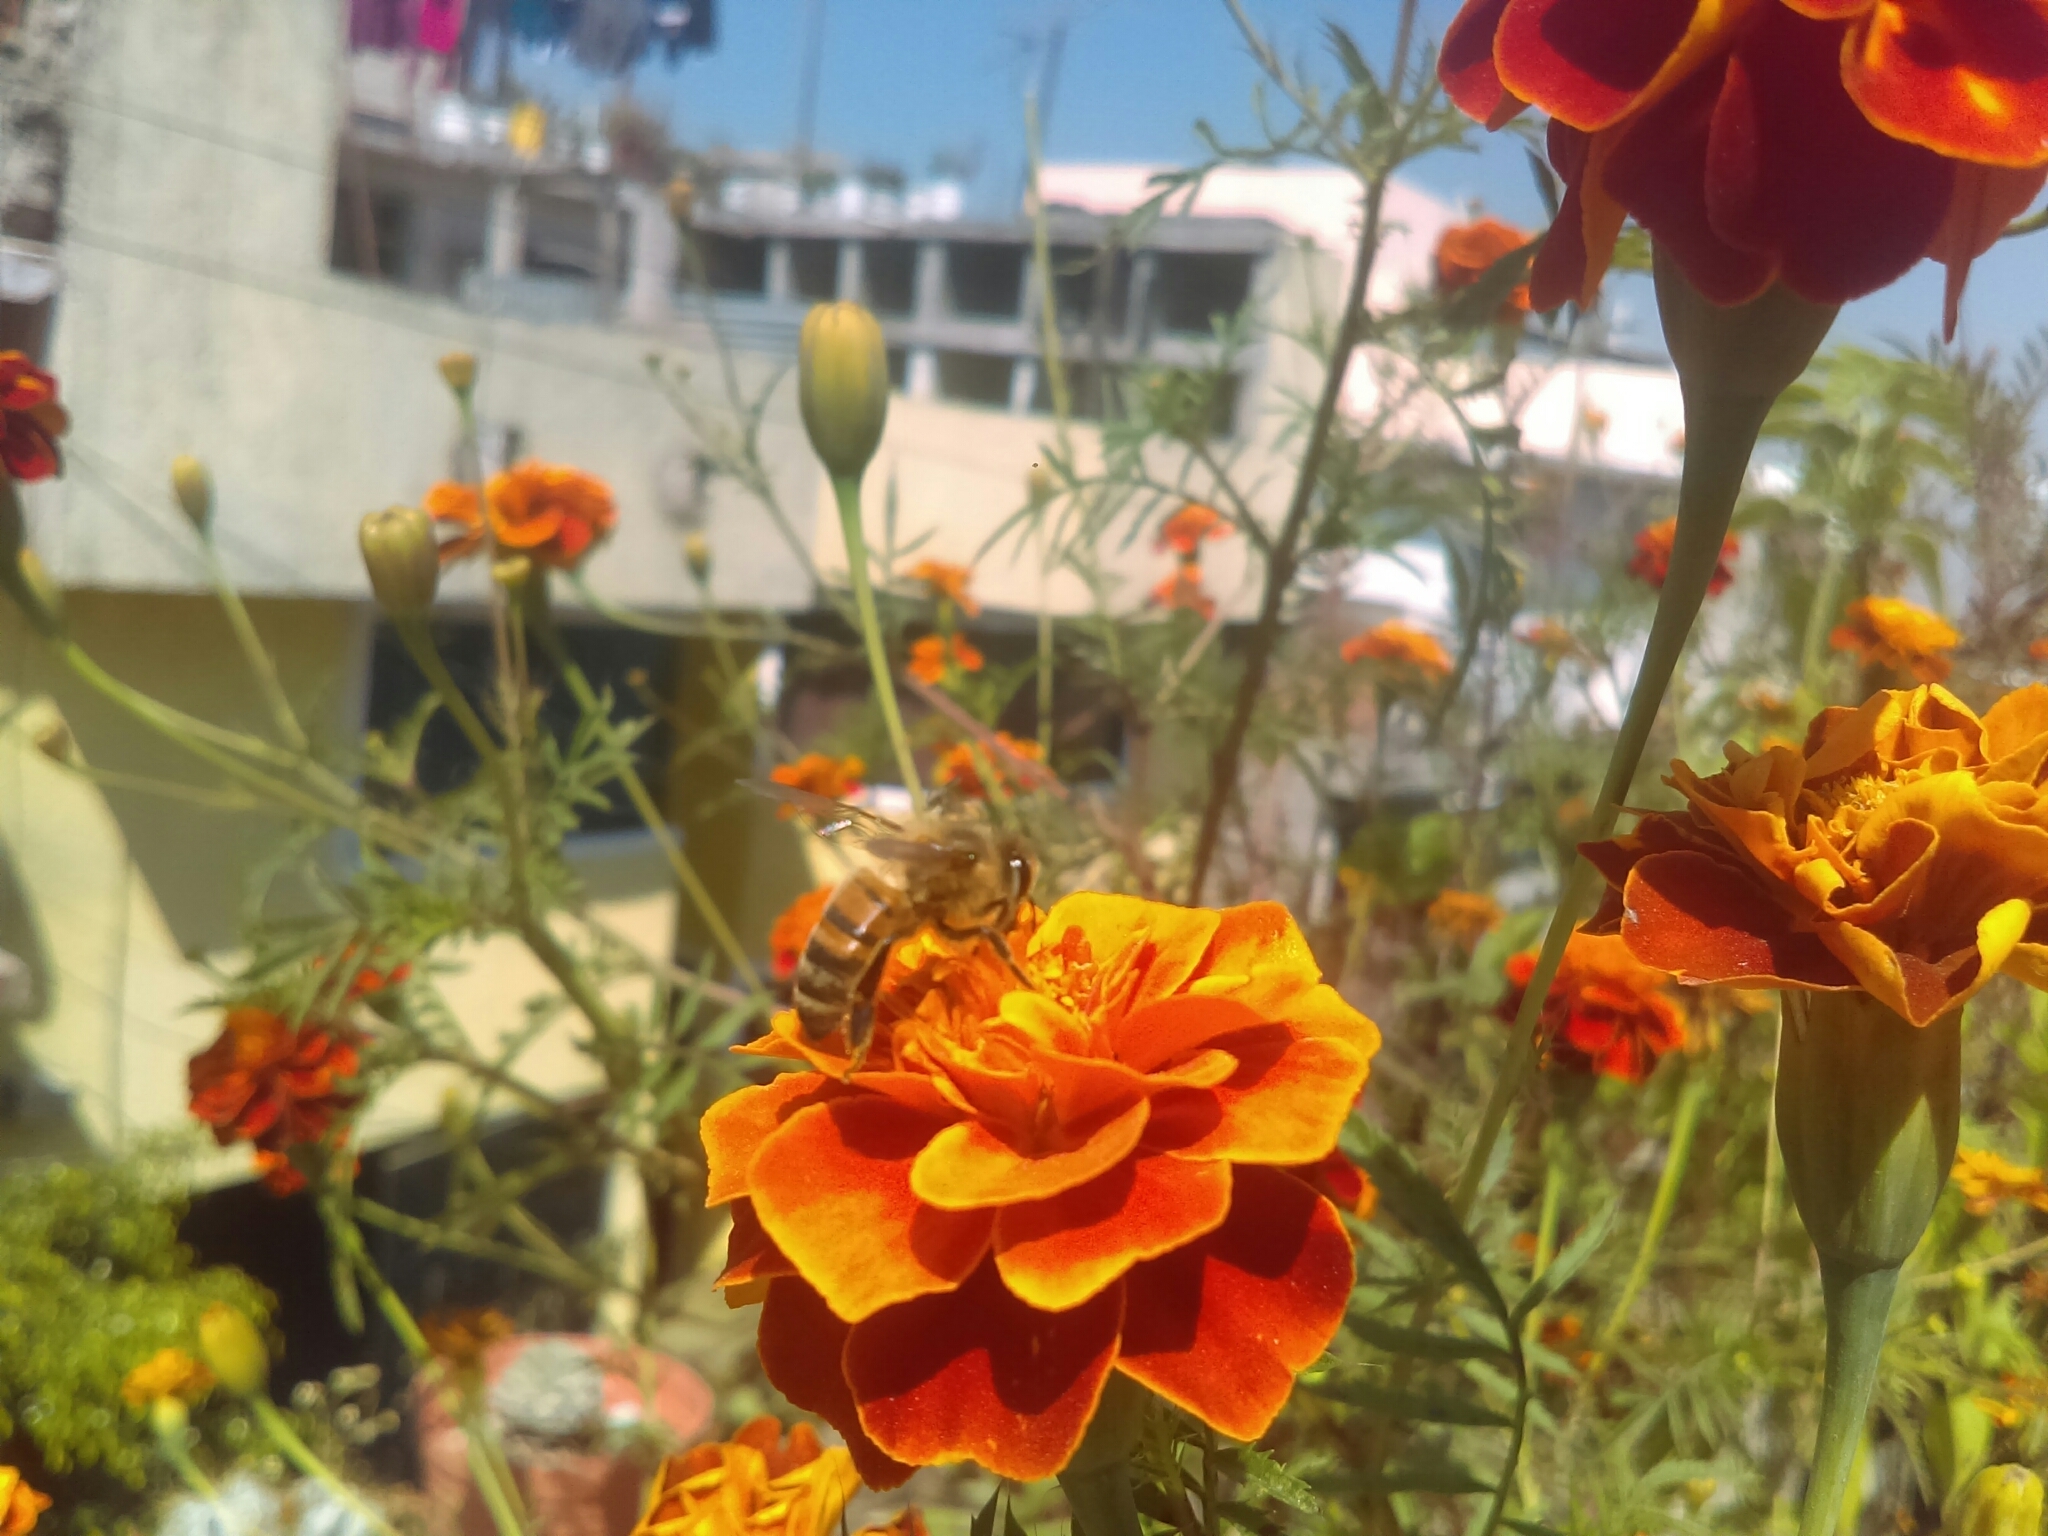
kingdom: Animalia
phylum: Arthropoda
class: Insecta
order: Hymenoptera
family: Apidae
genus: Apis
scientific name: Apis mellifera
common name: Honey bee
